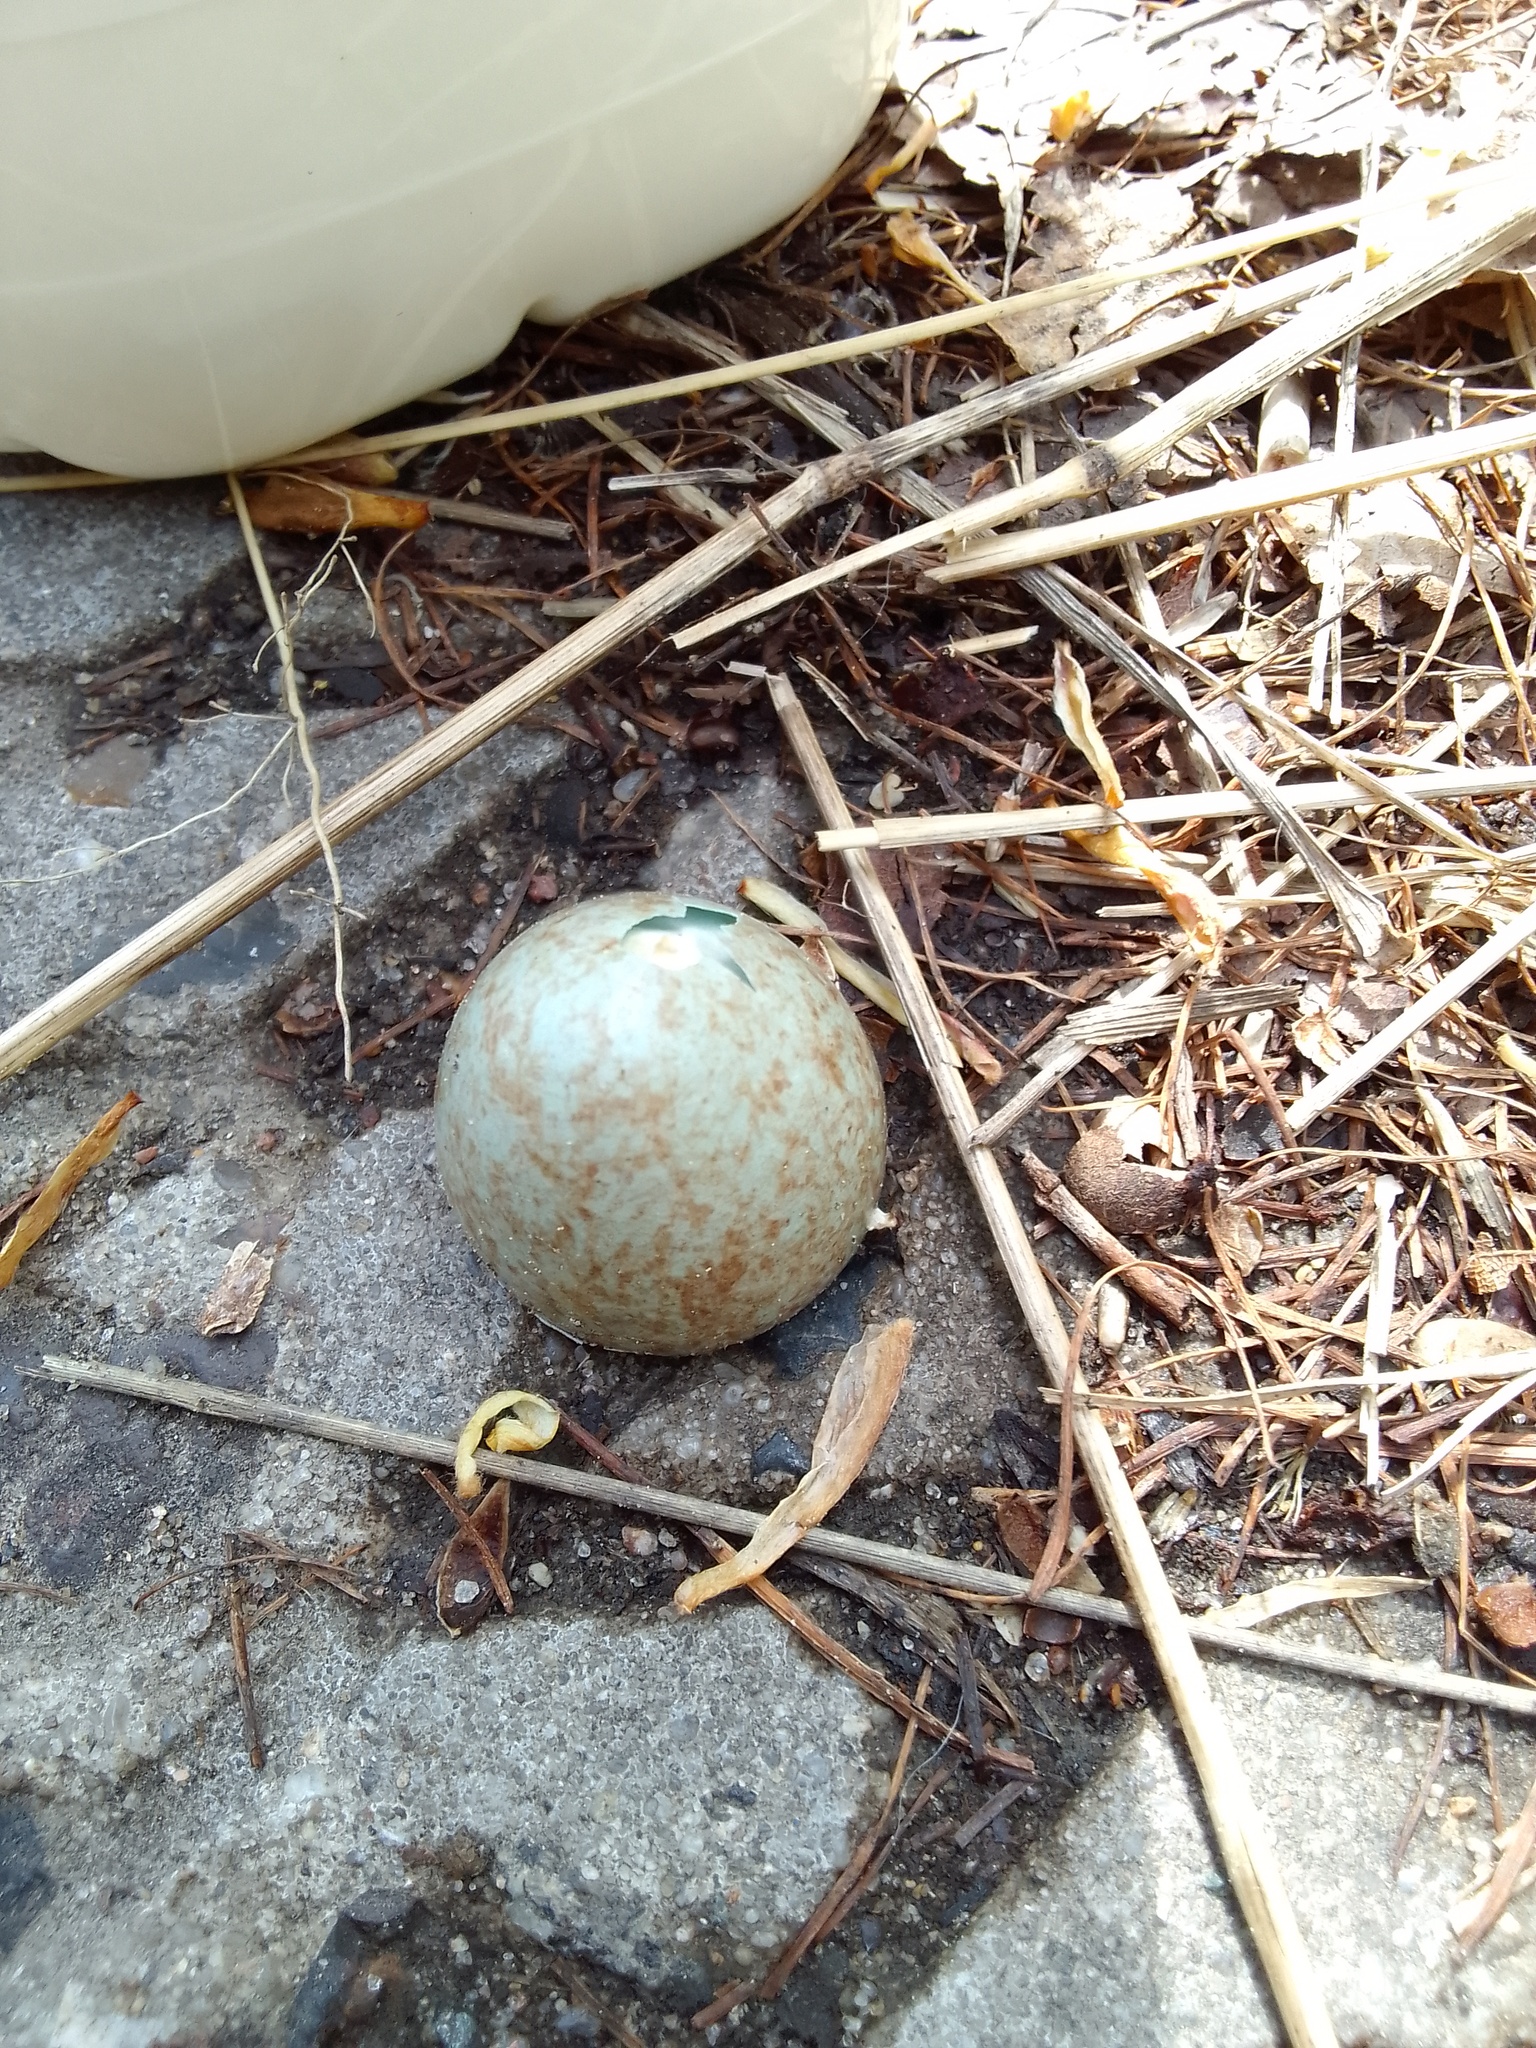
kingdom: Animalia
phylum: Chordata
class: Aves
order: Passeriformes
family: Turdidae
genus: Turdus
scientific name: Turdus merula
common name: Common blackbird
